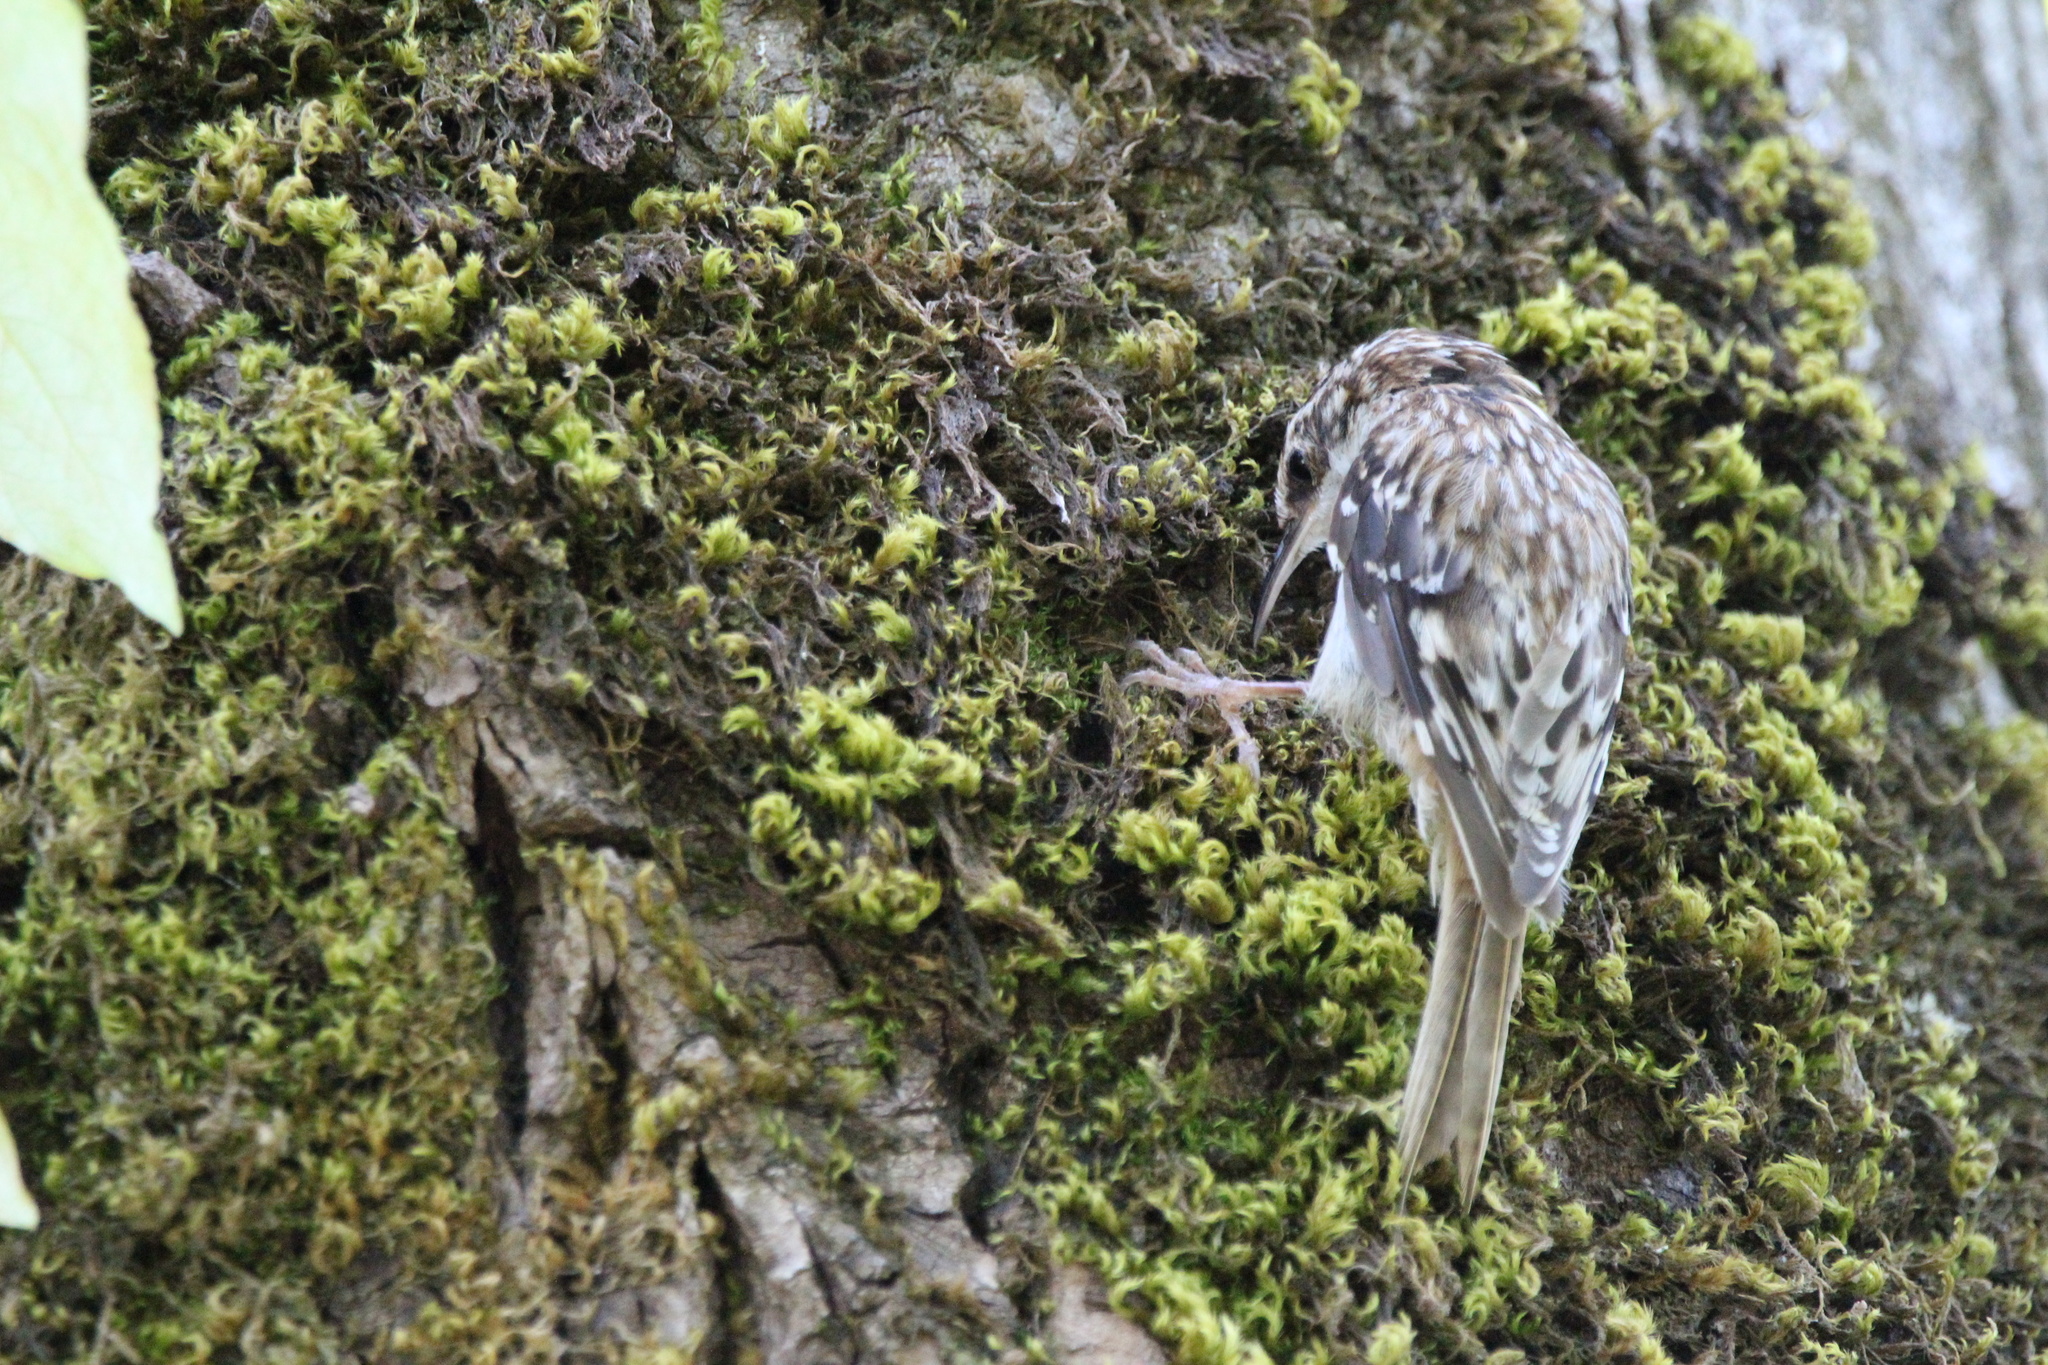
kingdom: Animalia
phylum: Chordata
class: Aves
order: Passeriformes
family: Certhiidae
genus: Certhia
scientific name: Certhia americana
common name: Brown creeper
